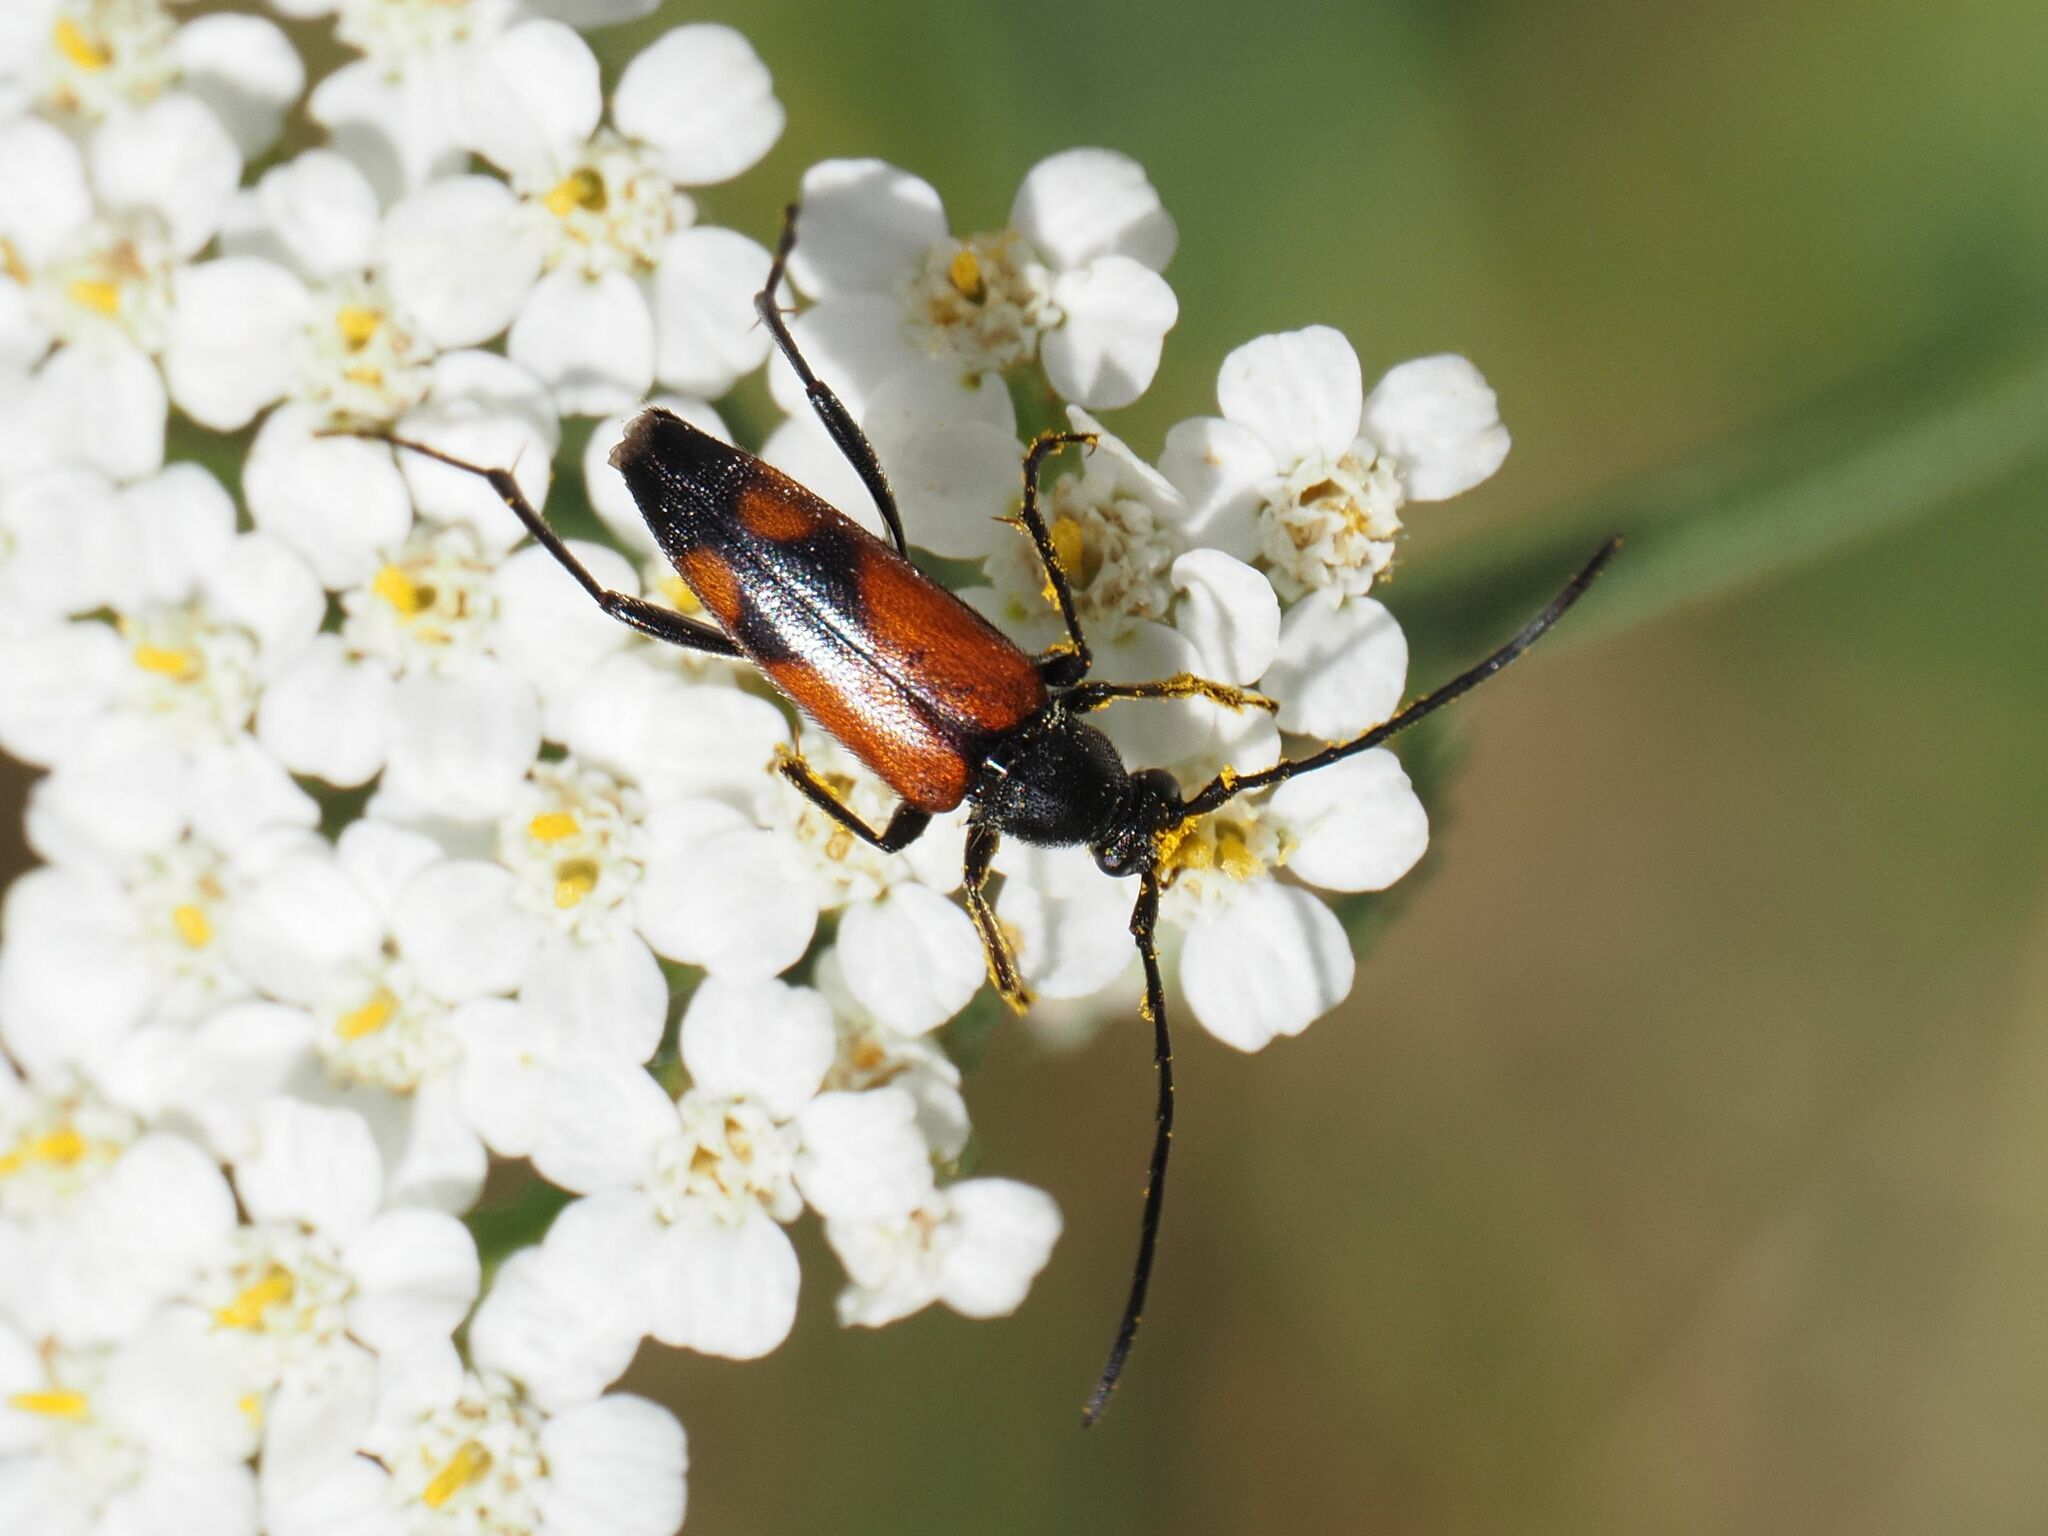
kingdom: Animalia
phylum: Arthropoda
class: Insecta
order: Coleoptera
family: Cerambycidae
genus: Stenurella
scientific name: Stenurella bifasciata
